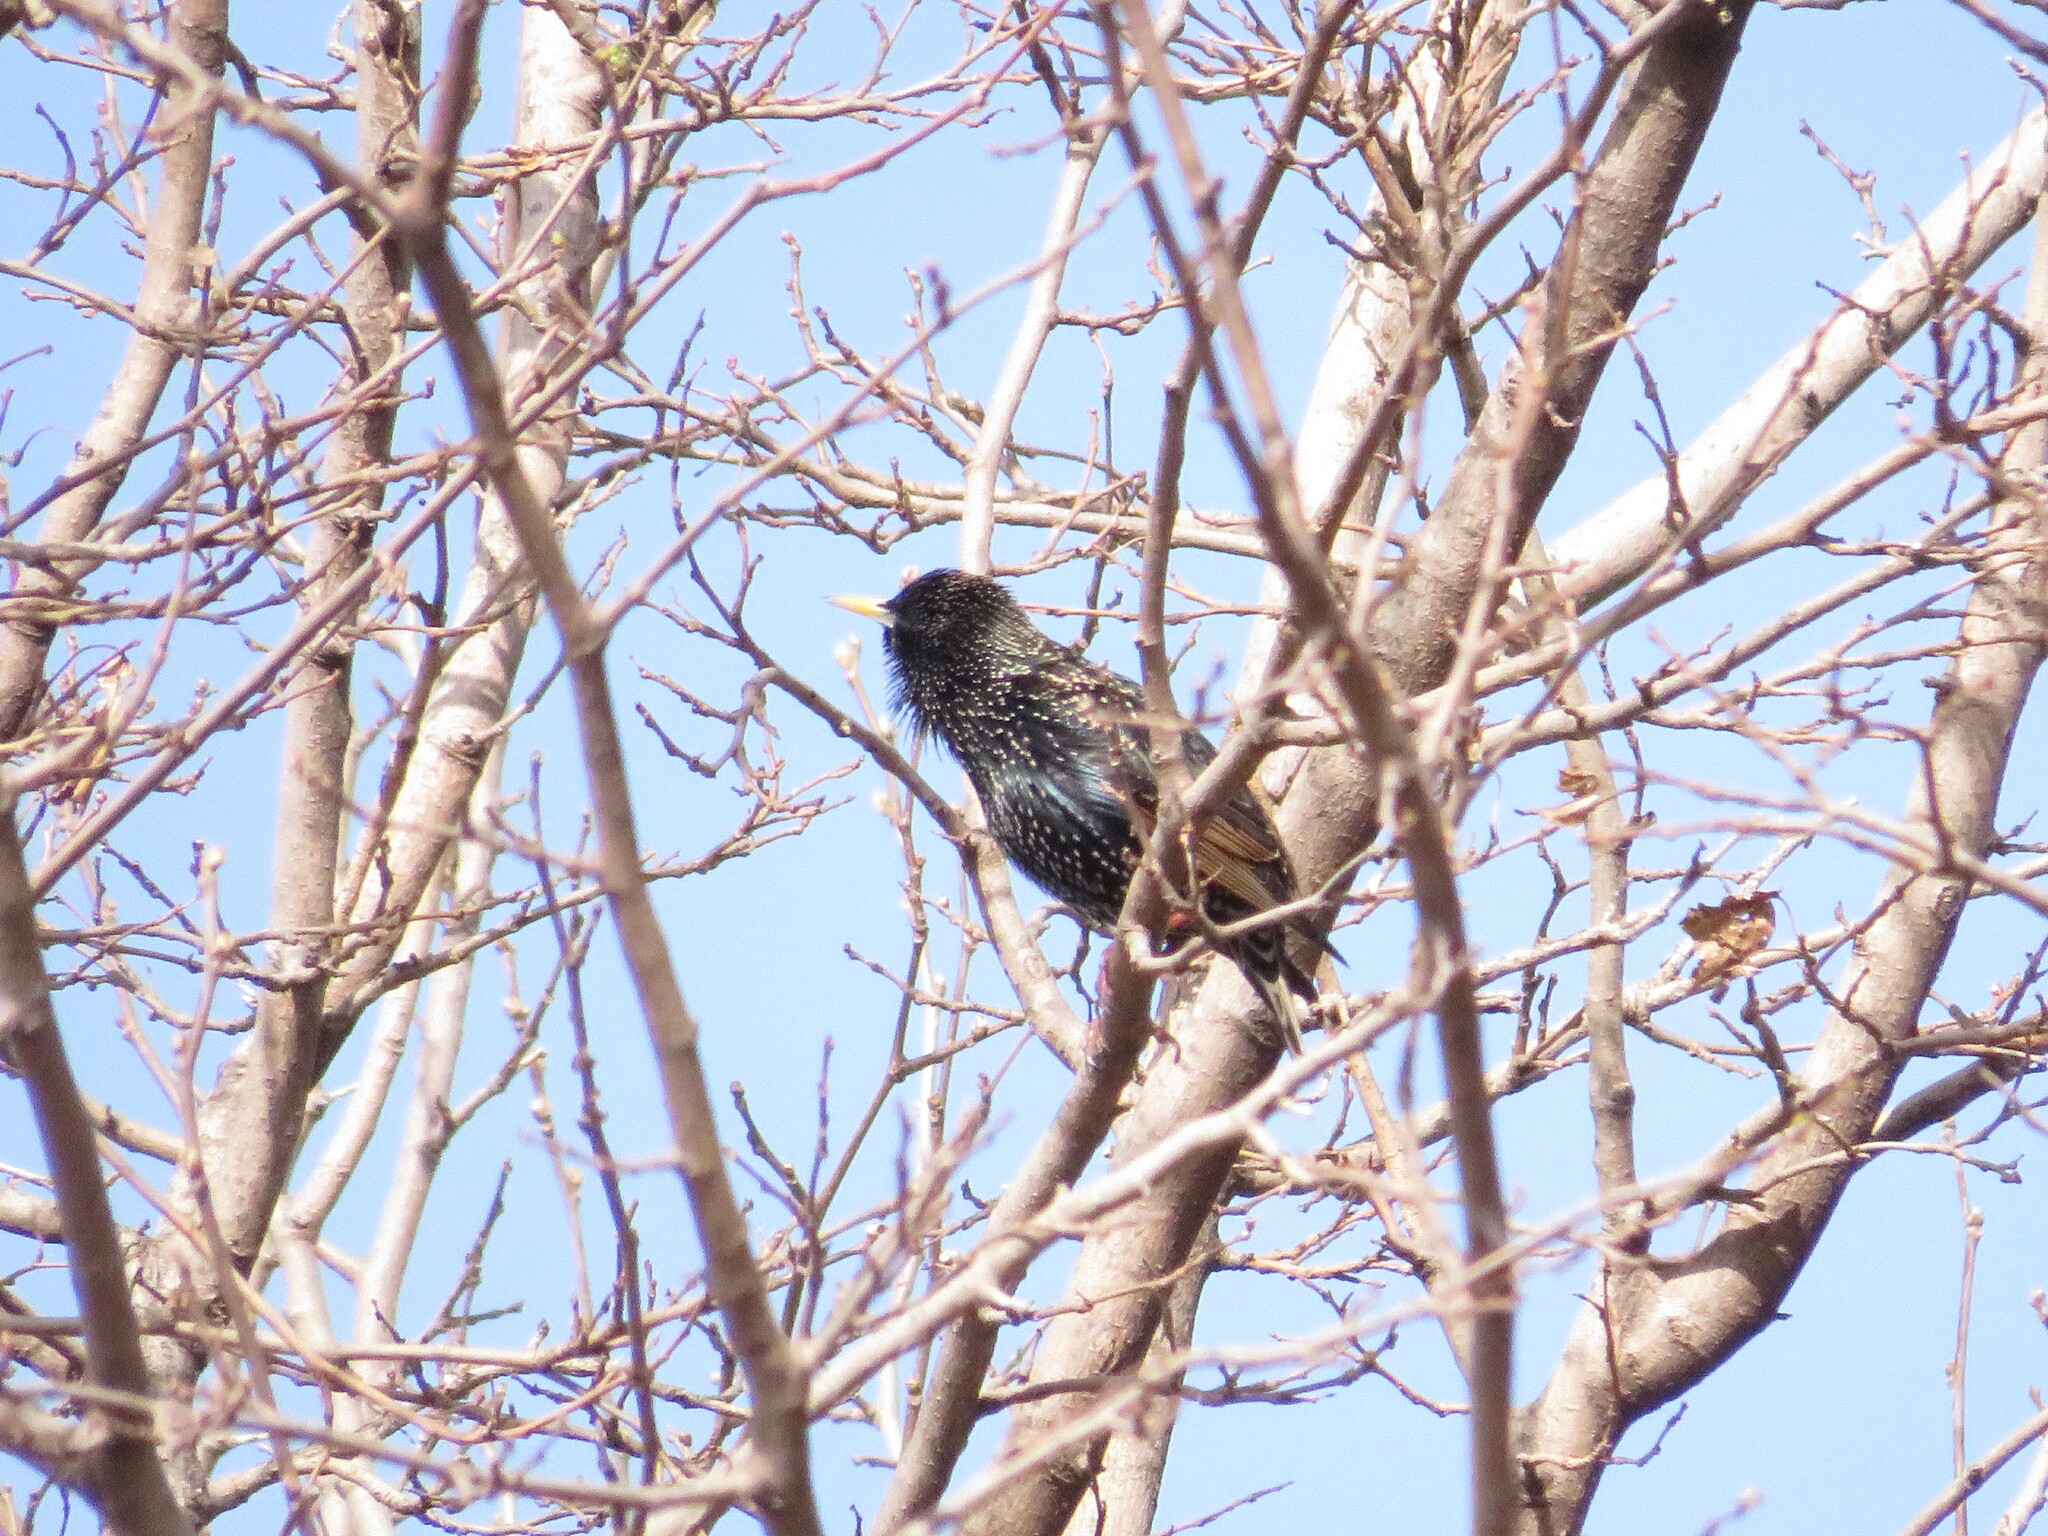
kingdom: Animalia
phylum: Chordata
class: Aves
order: Passeriformes
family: Sturnidae
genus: Sturnus
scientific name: Sturnus vulgaris
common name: Common starling
